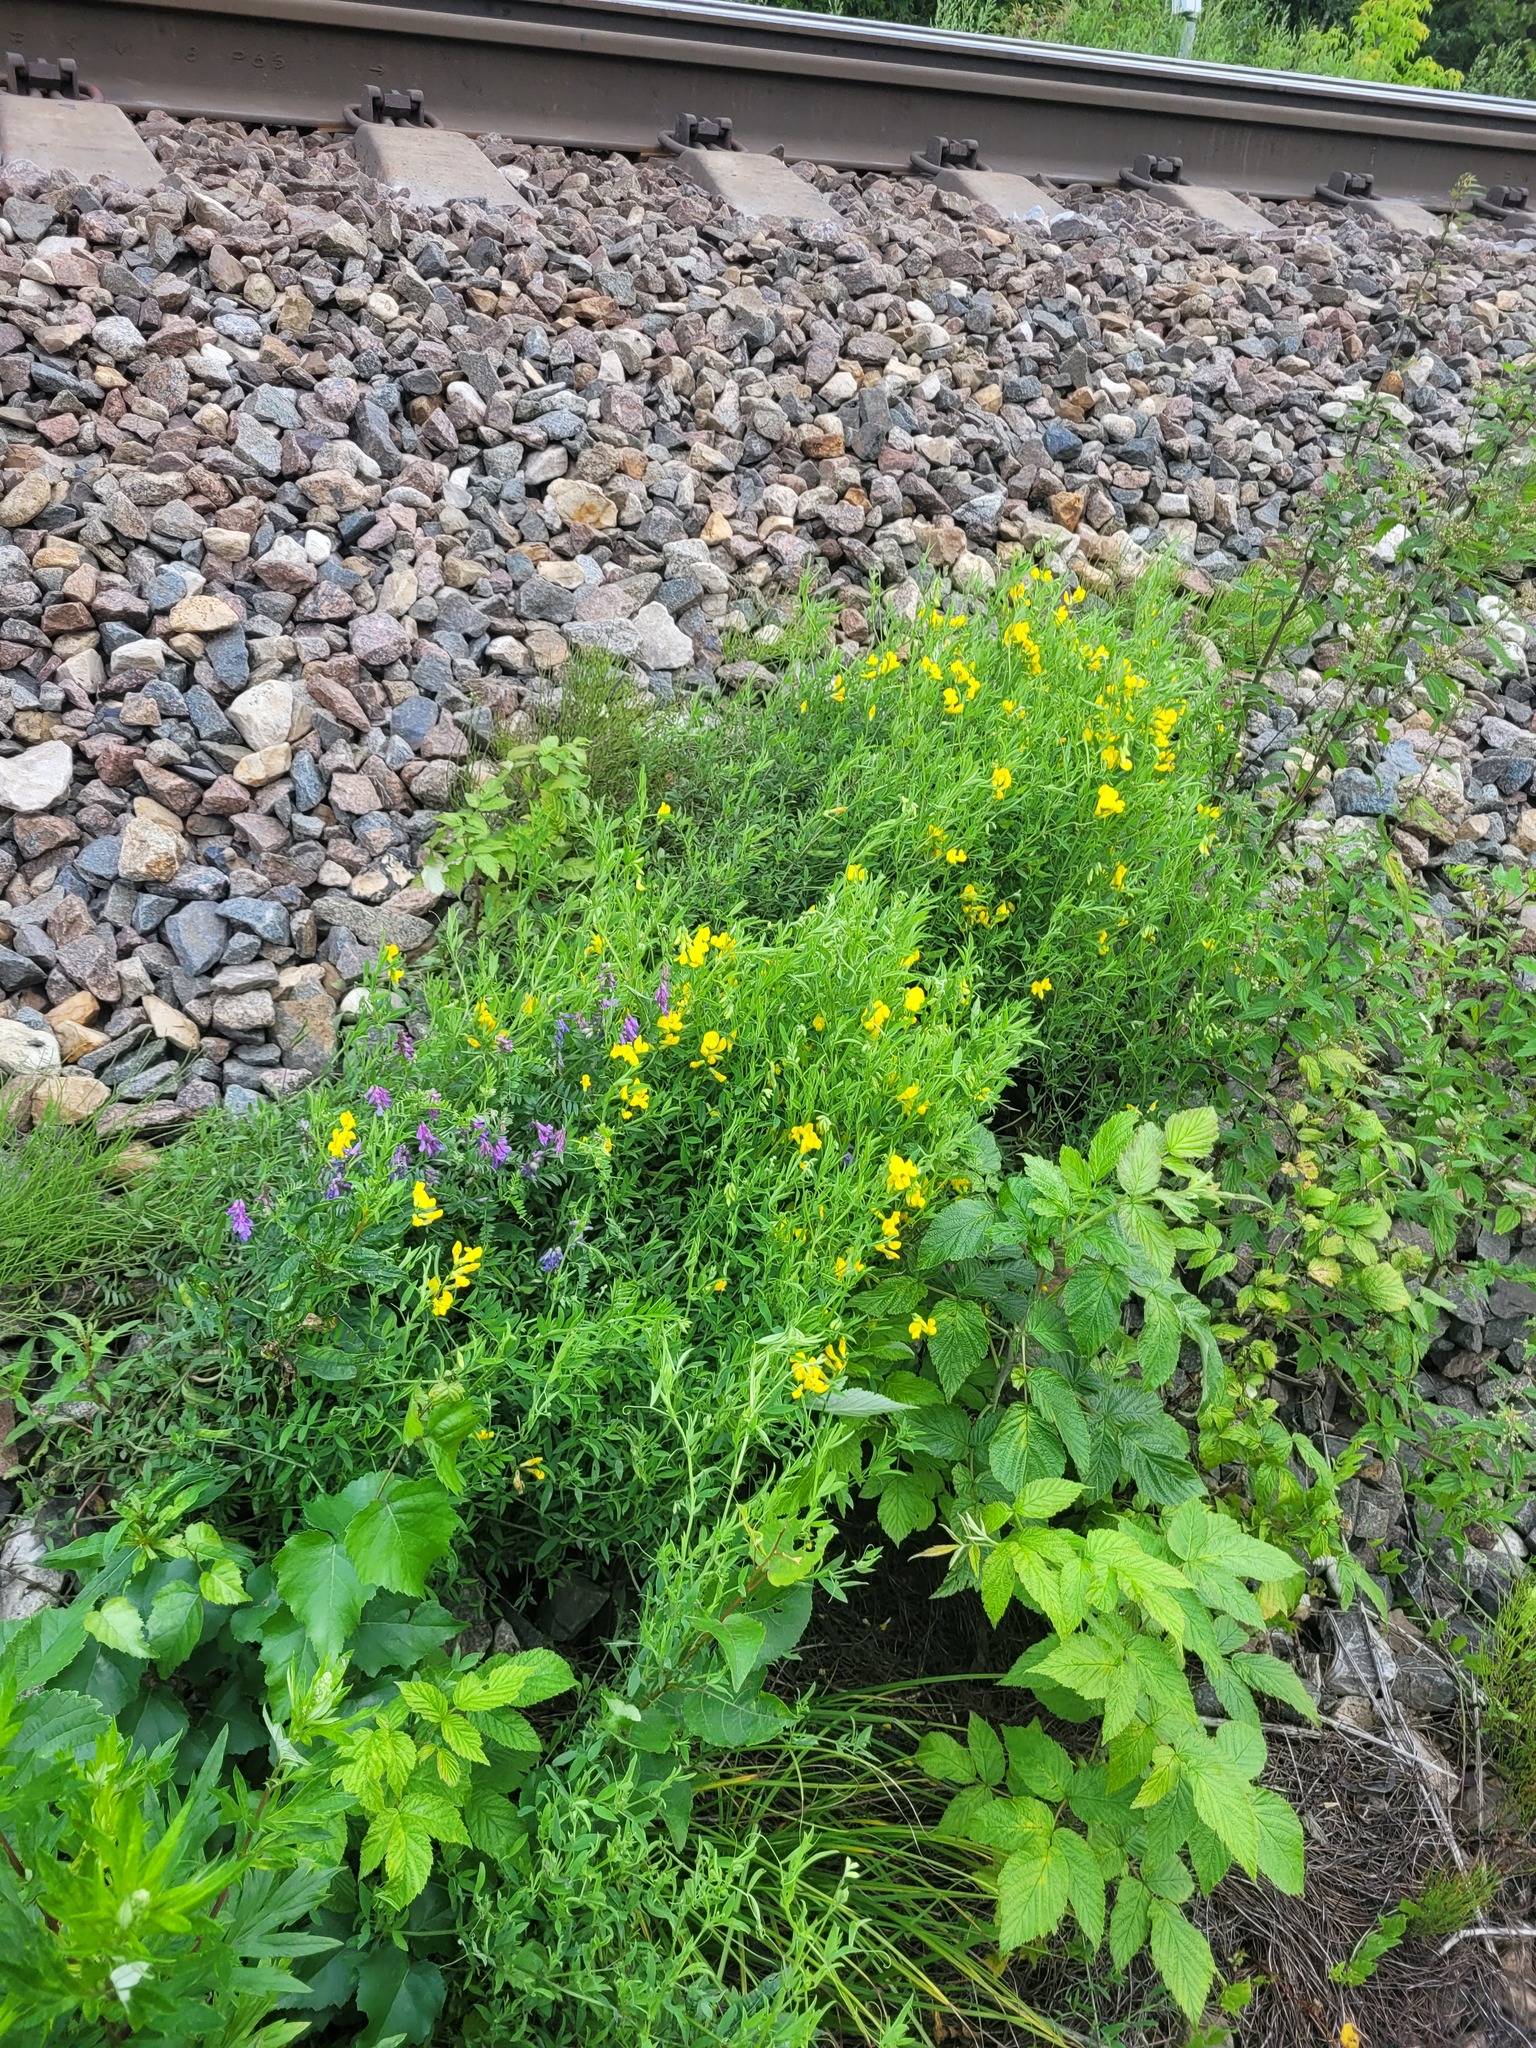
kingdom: Plantae
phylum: Tracheophyta
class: Magnoliopsida
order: Fabales
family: Fabaceae
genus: Lathyrus
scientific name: Lathyrus pratensis
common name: Meadow vetchling
